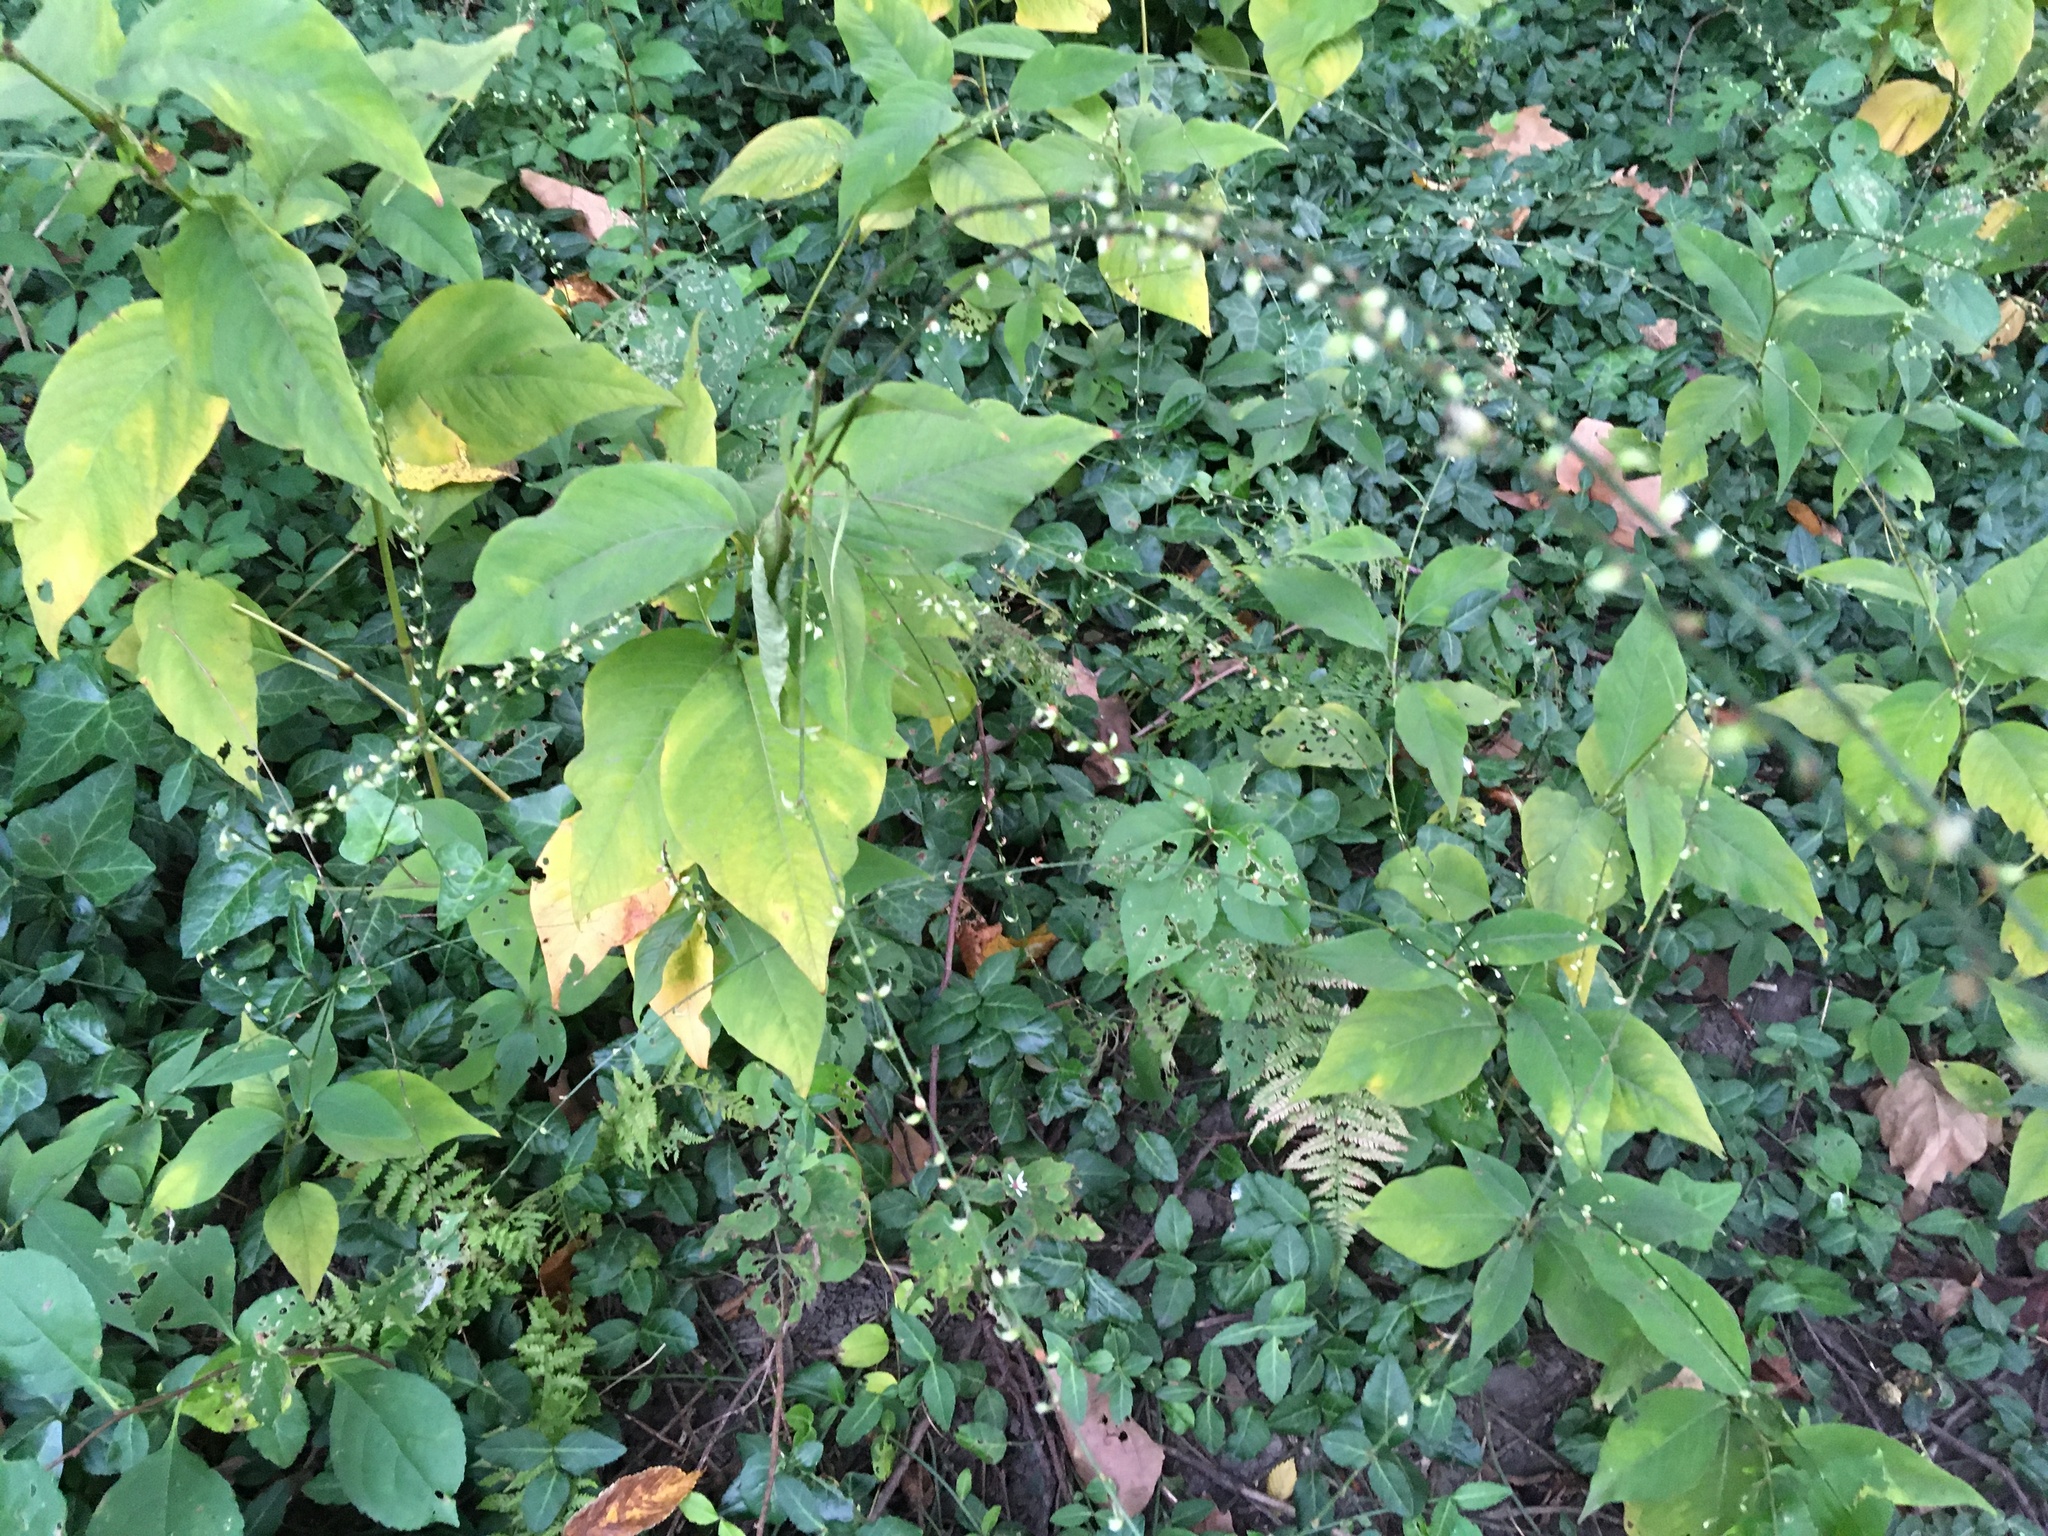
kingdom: Plantae
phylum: Tracheophyta
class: Magnoliopsida
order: Caryophyllales
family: Polygonaceae
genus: Persicaria
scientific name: Persicaria virginiana
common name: Jumpseed
